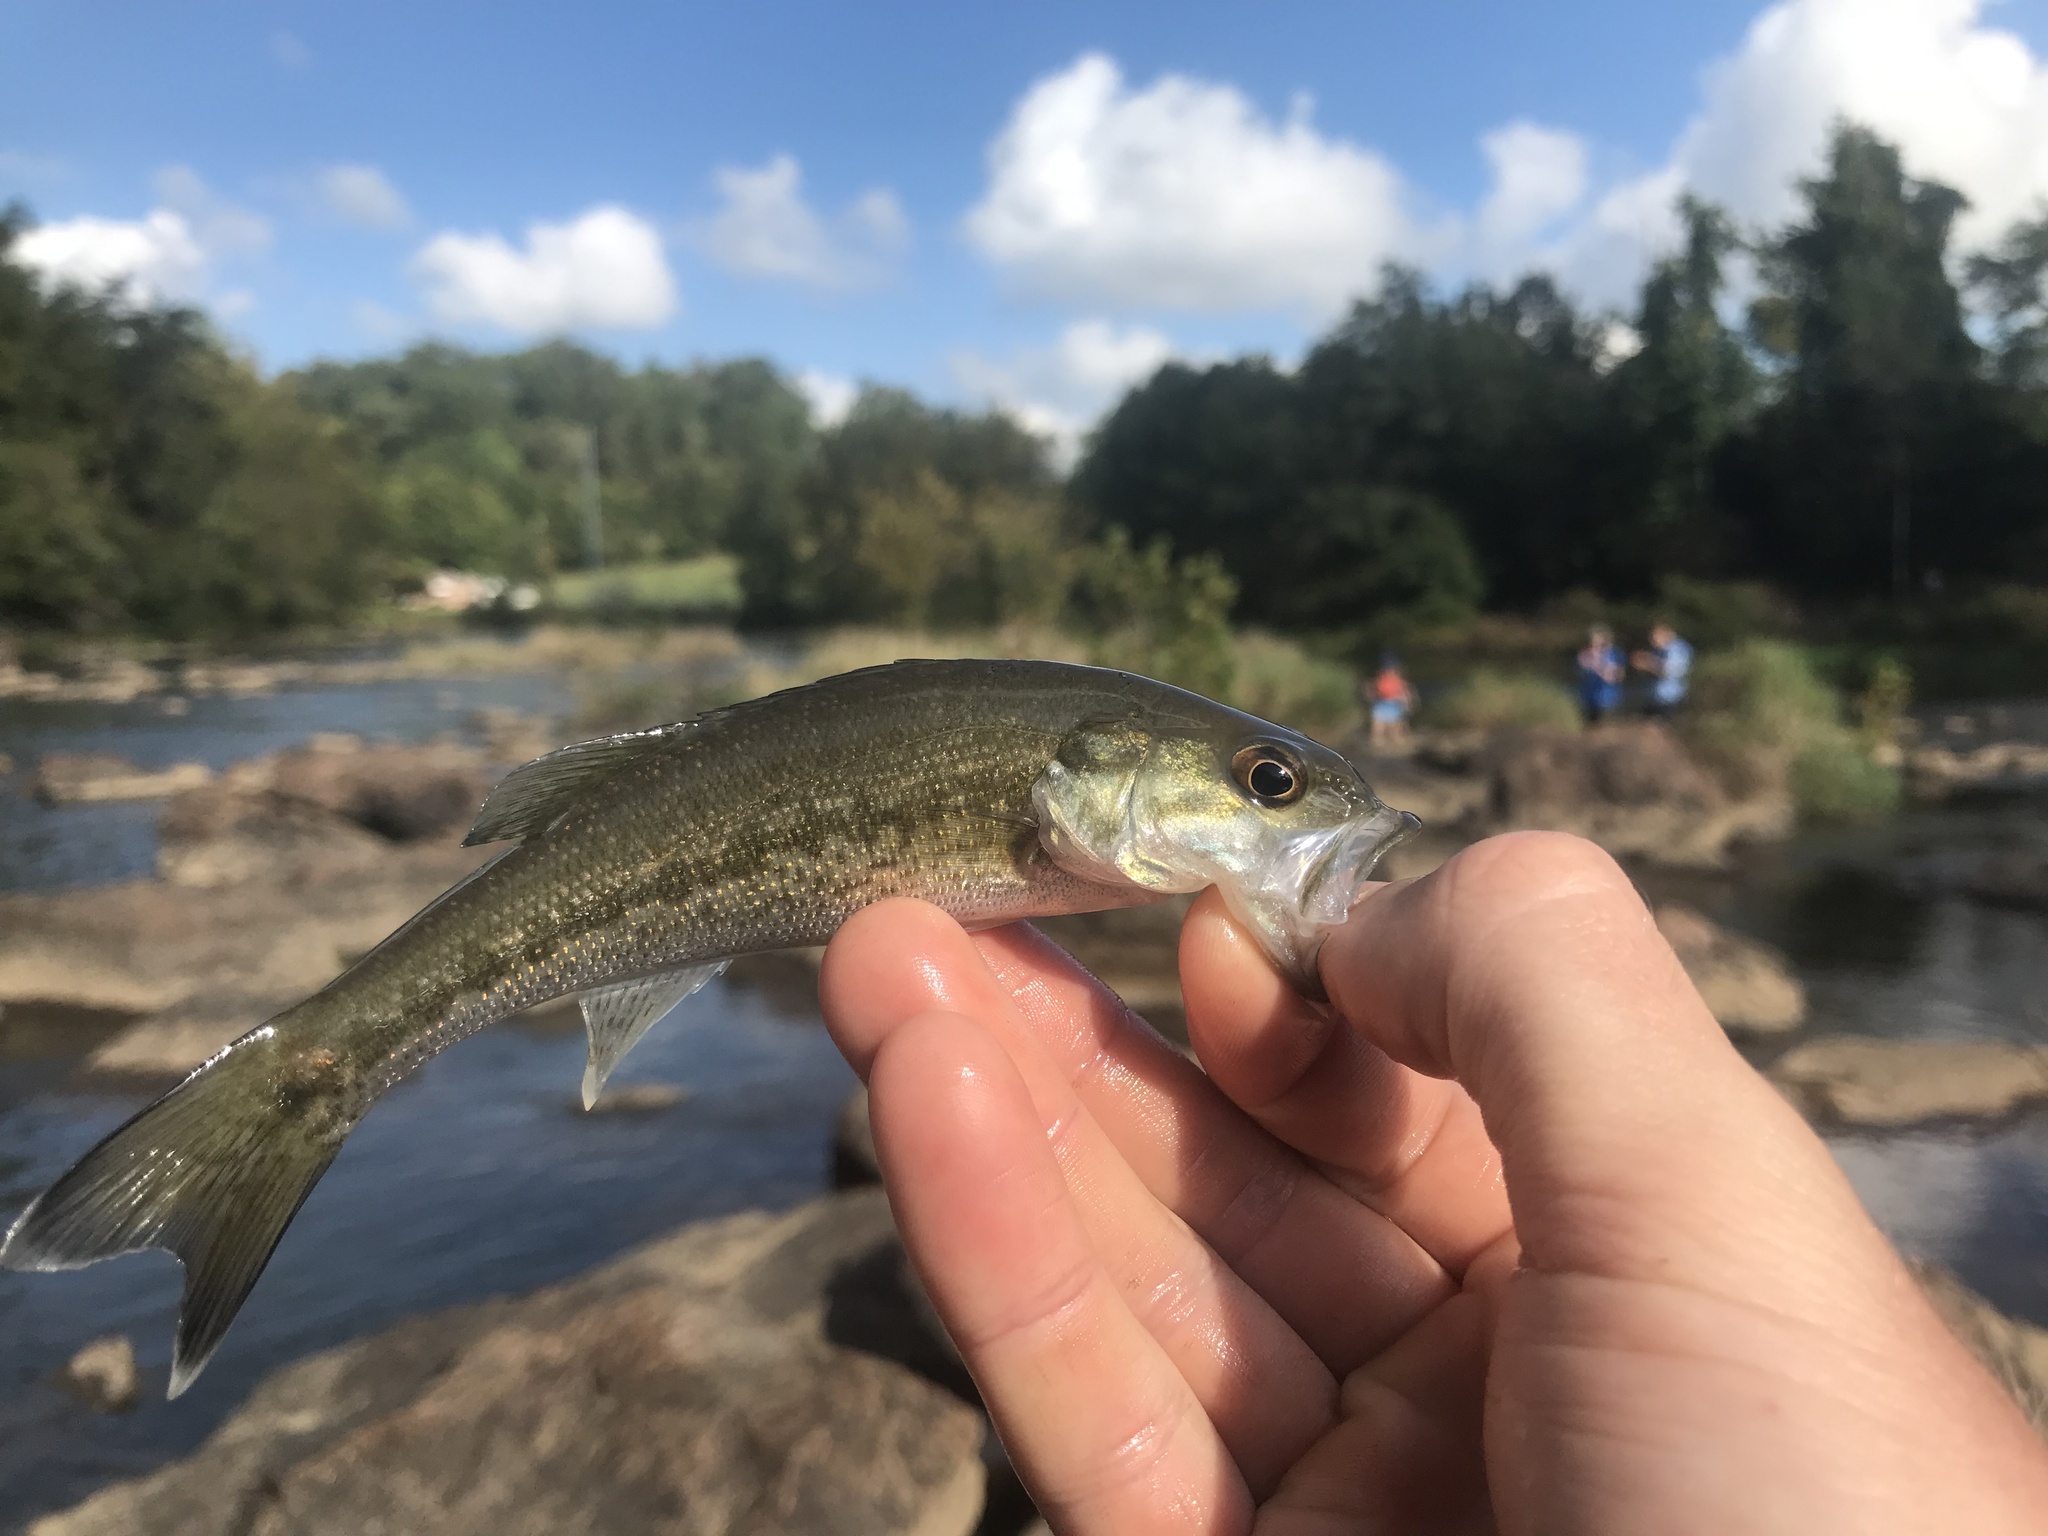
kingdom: Animalia
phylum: Chordata
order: Perciformes
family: Centrarchidae
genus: Micropterus
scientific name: Micropterus
